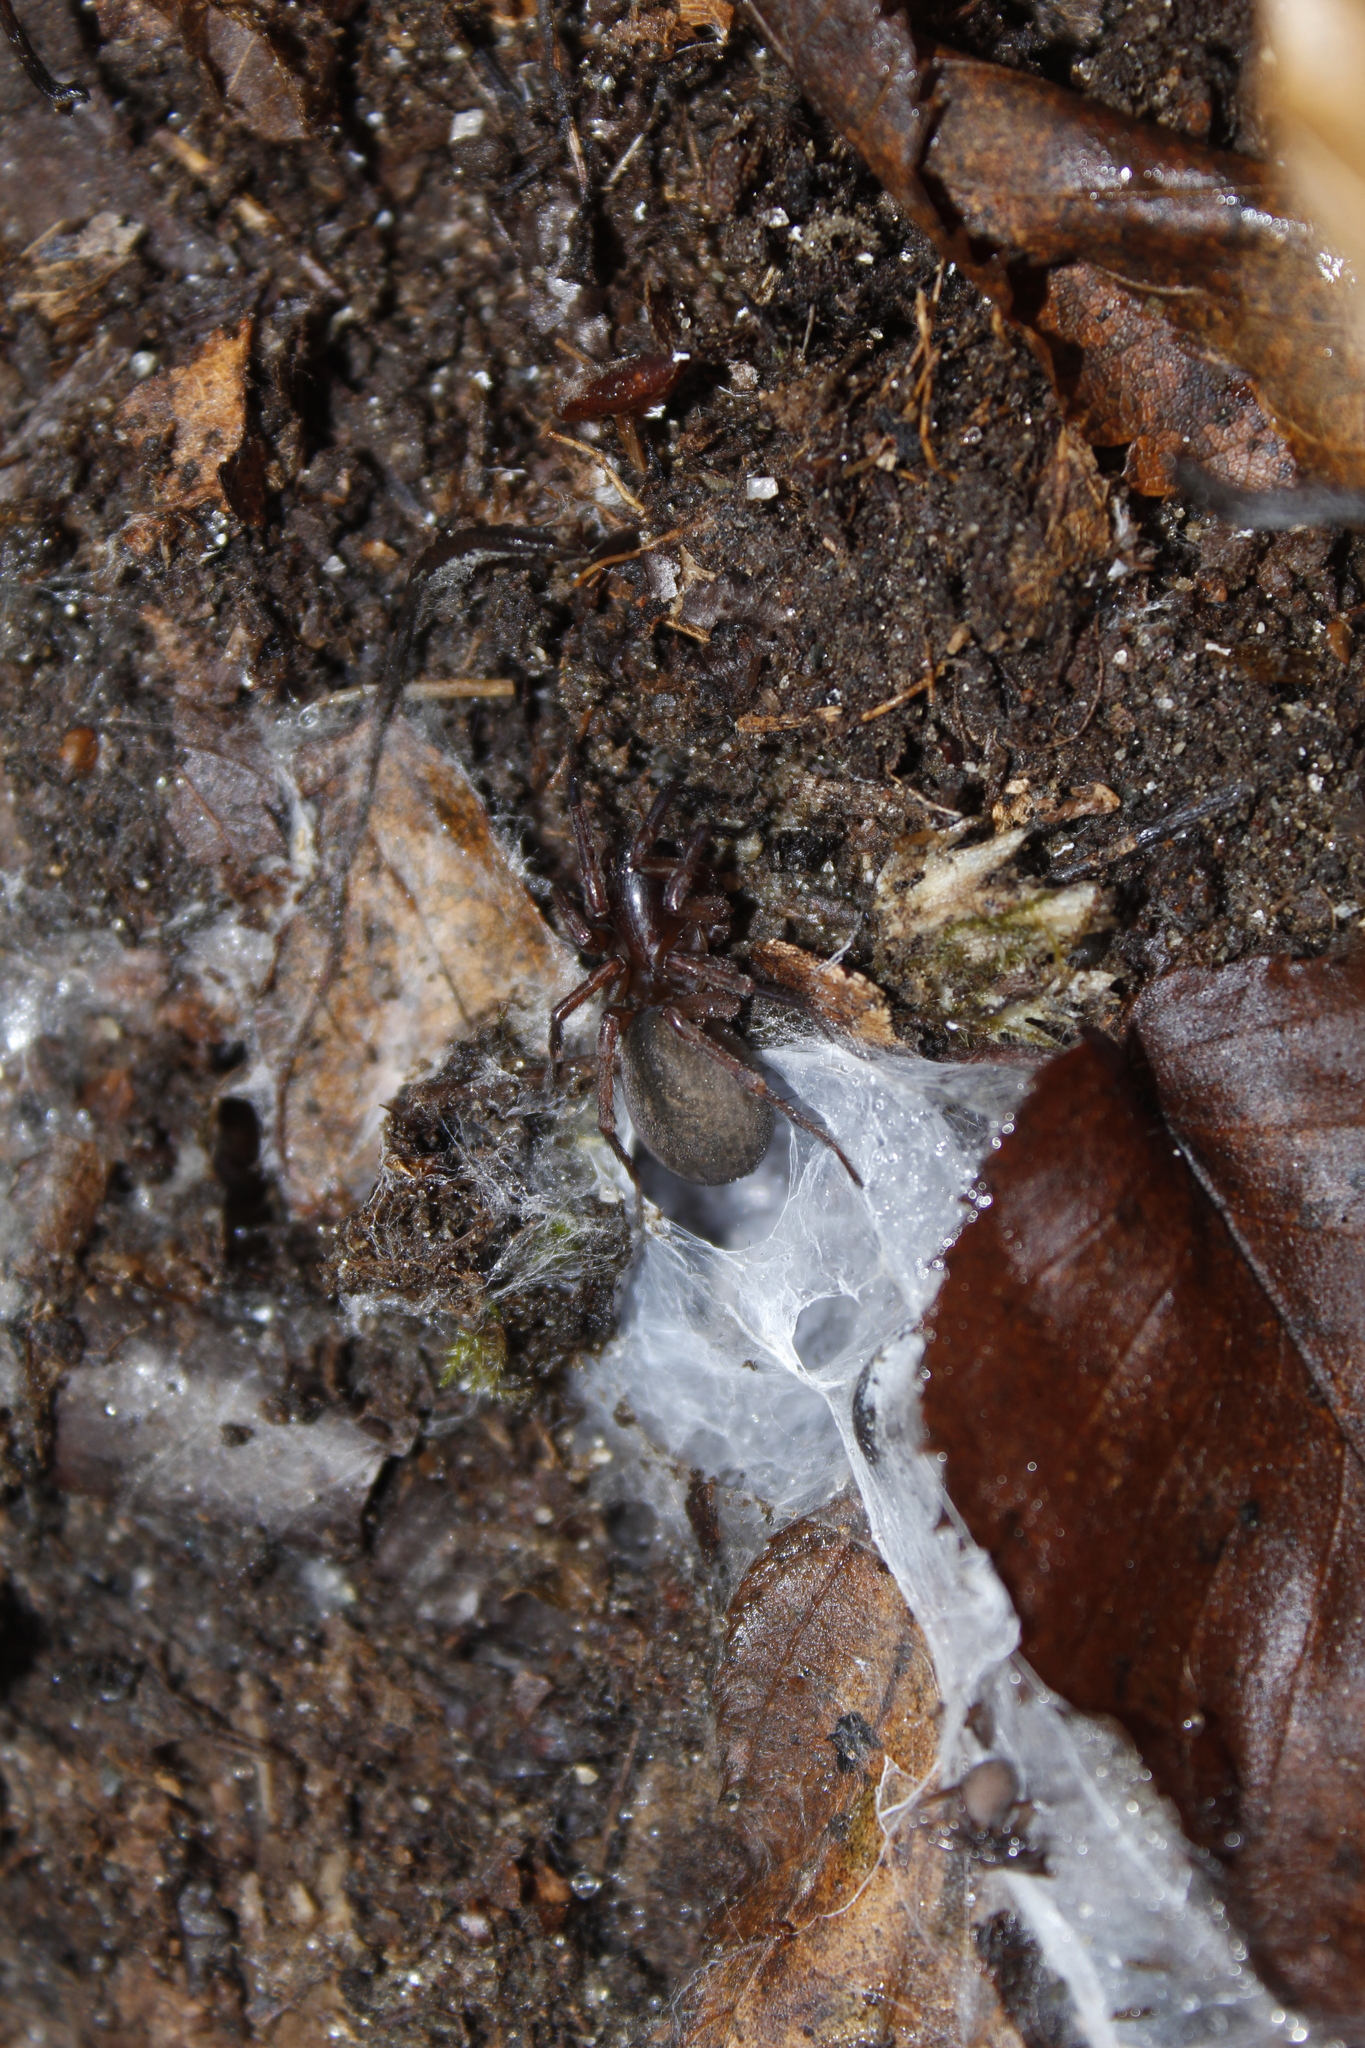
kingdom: Animalia
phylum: Arthropoda
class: Arachnida
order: Araneae
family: Agelenidae
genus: Wadotes
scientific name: Wadotes
